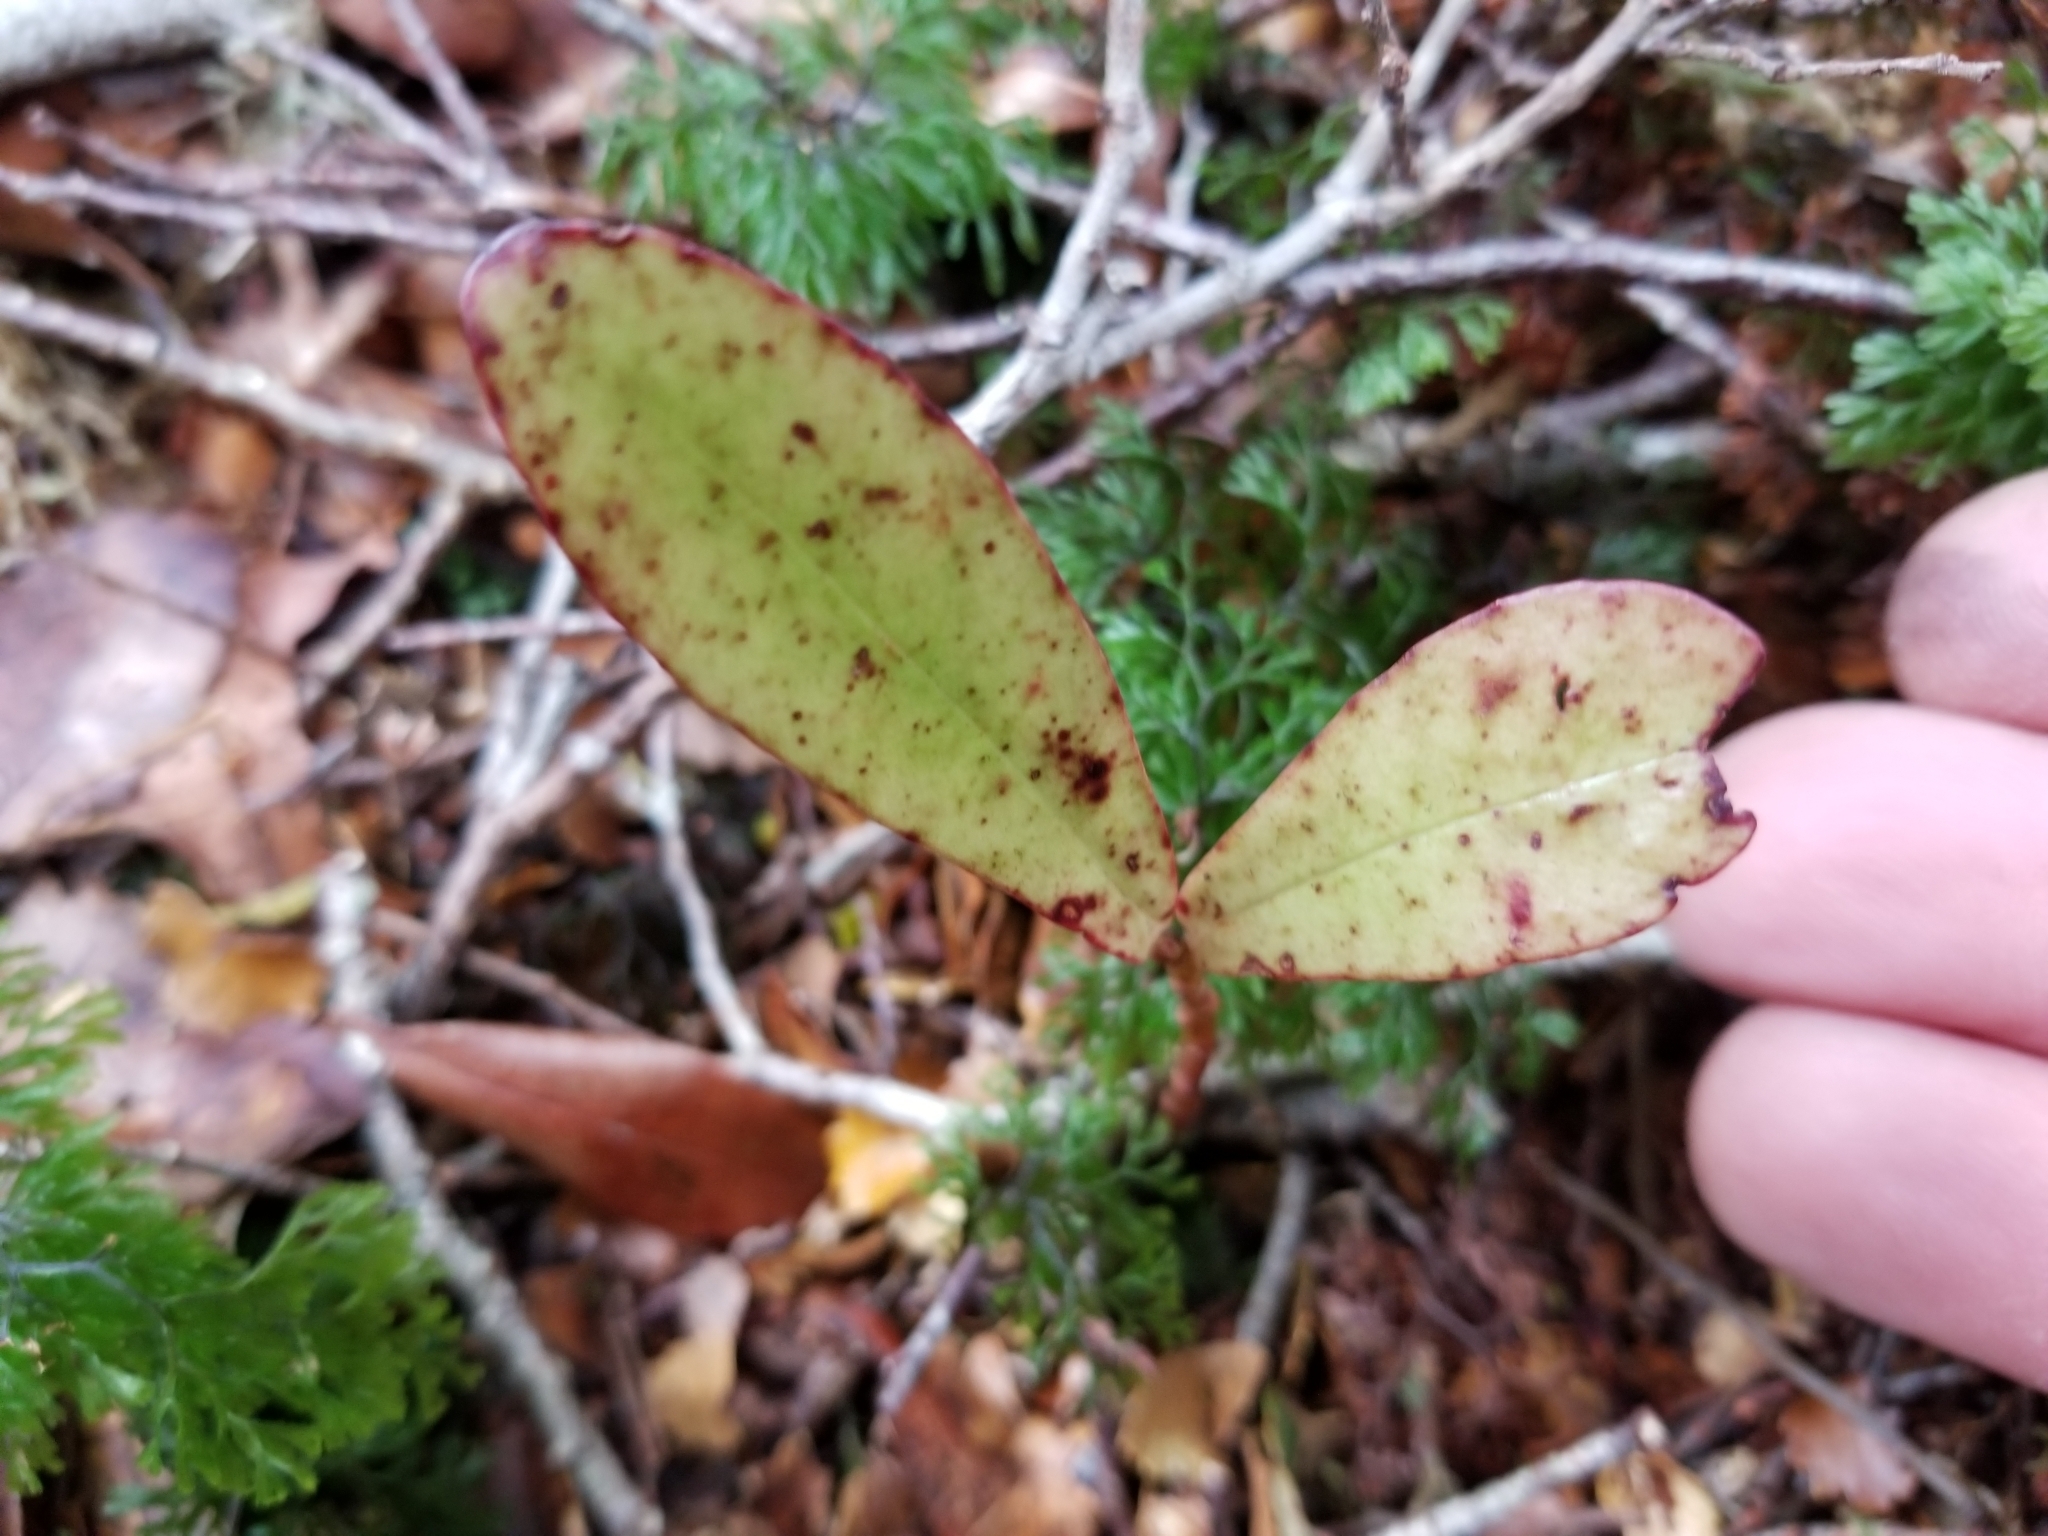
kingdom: Plantae
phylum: Tracheophyta
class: Magnoliopsida
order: Canellales
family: Winteraceae
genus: Pseudowintera
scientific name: Pseudowintera colorata
